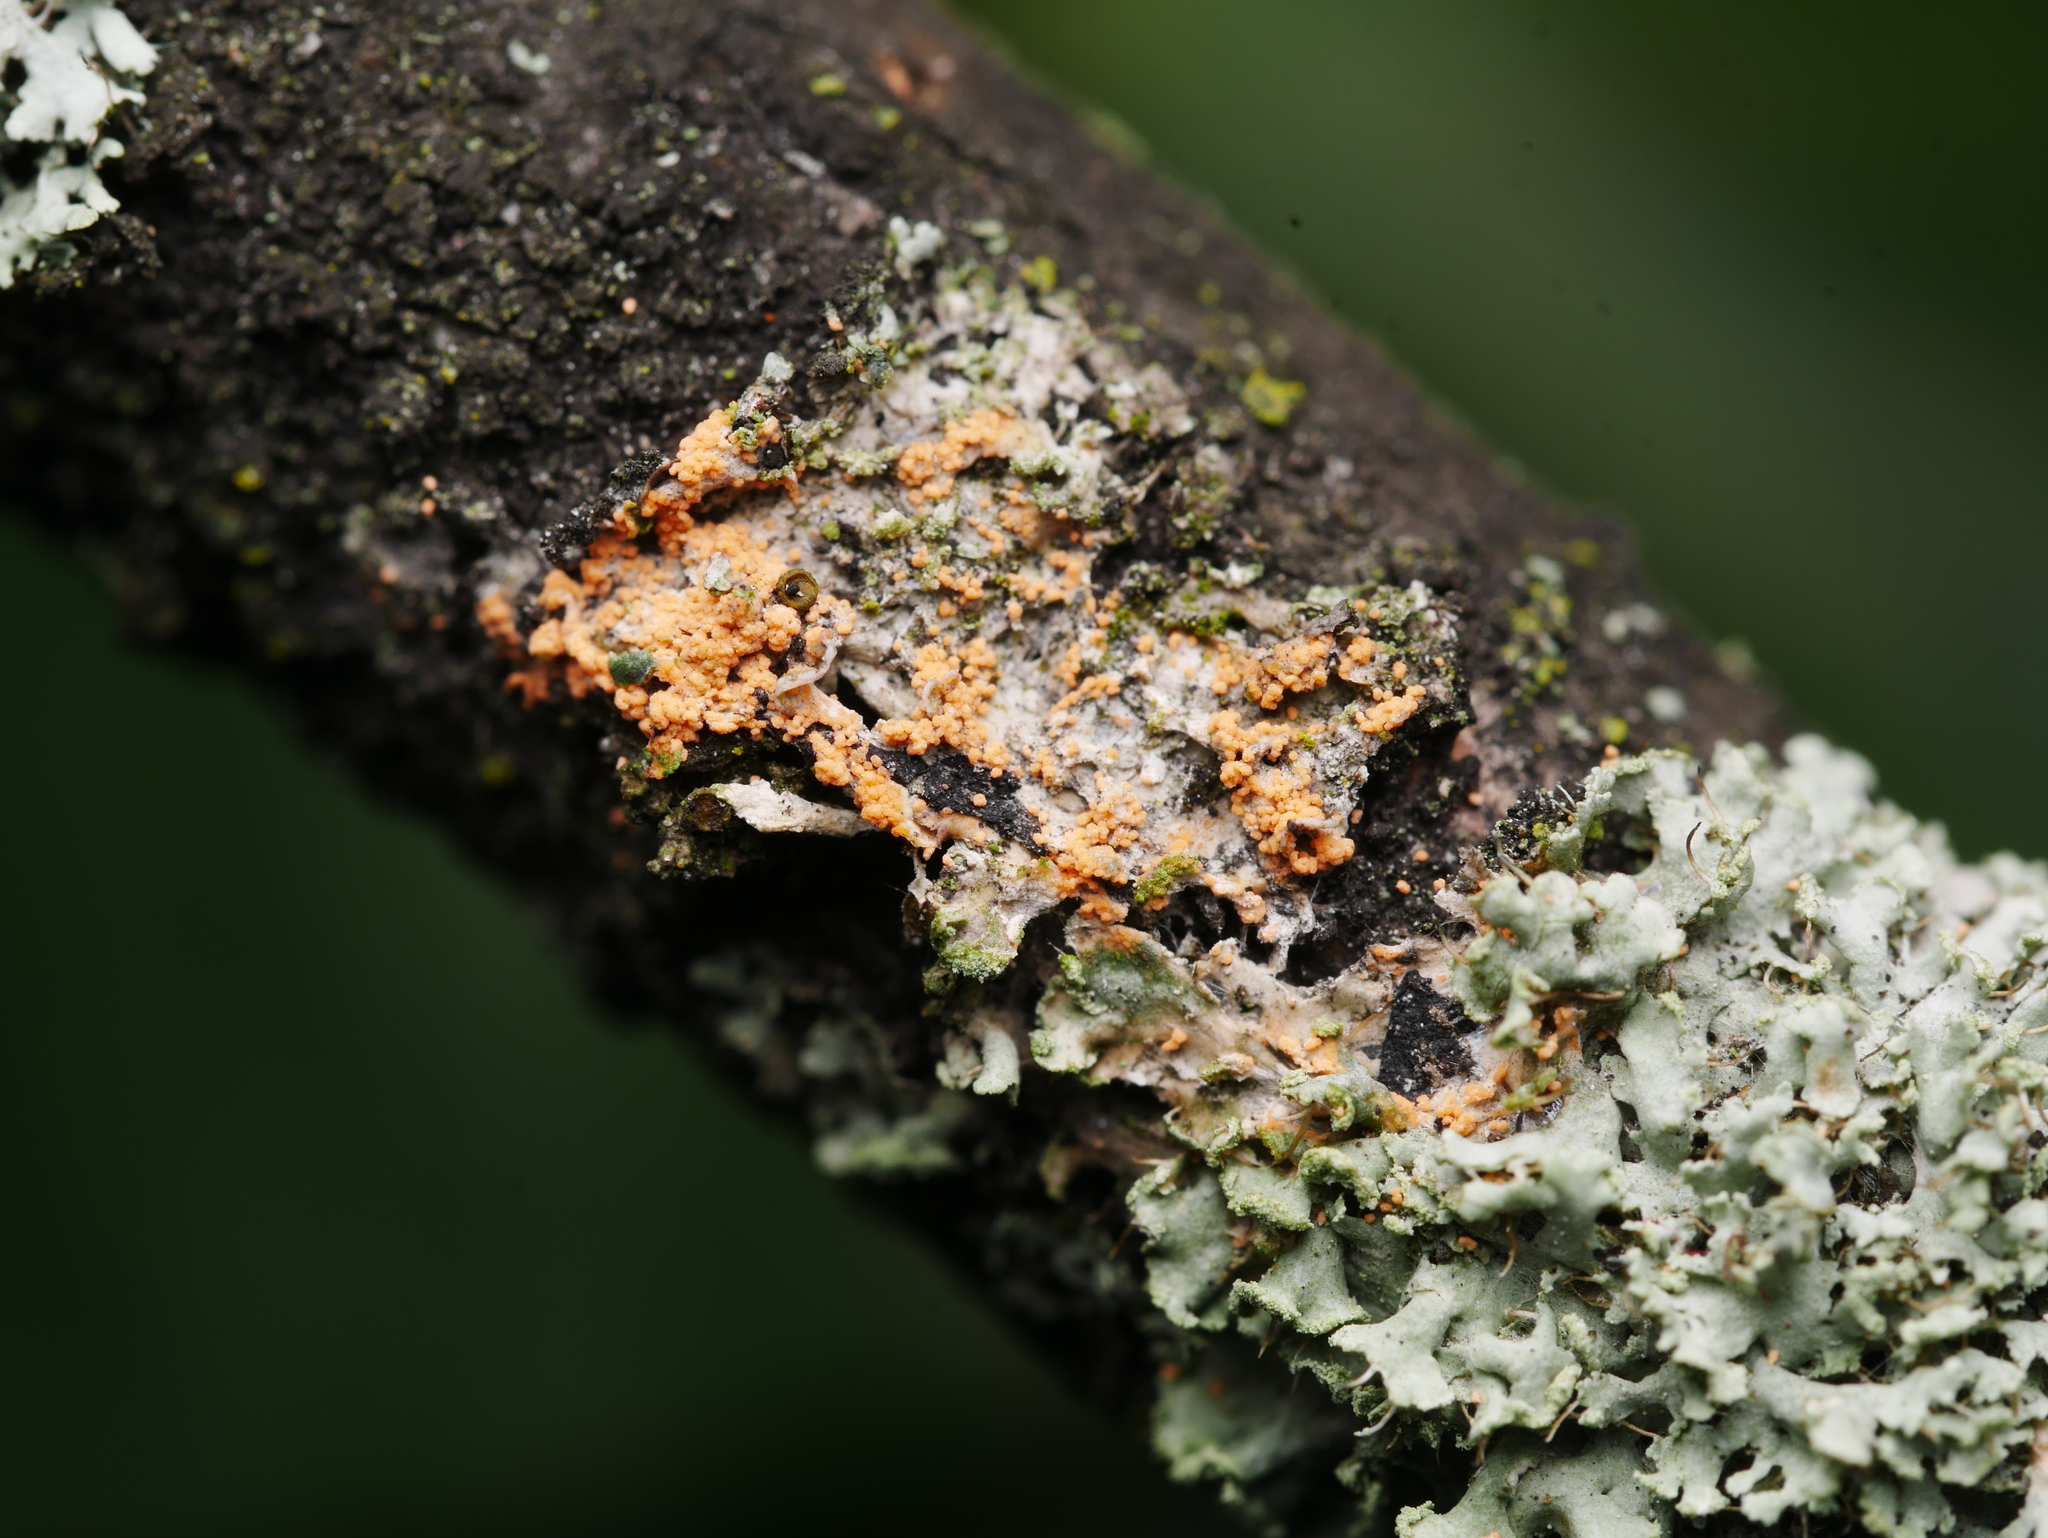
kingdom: Fungi
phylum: Basidiomycota
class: Agaricomycetes
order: Corticiales
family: Corticiaceae
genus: Erythricium
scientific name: Erythricium aurantiacum
